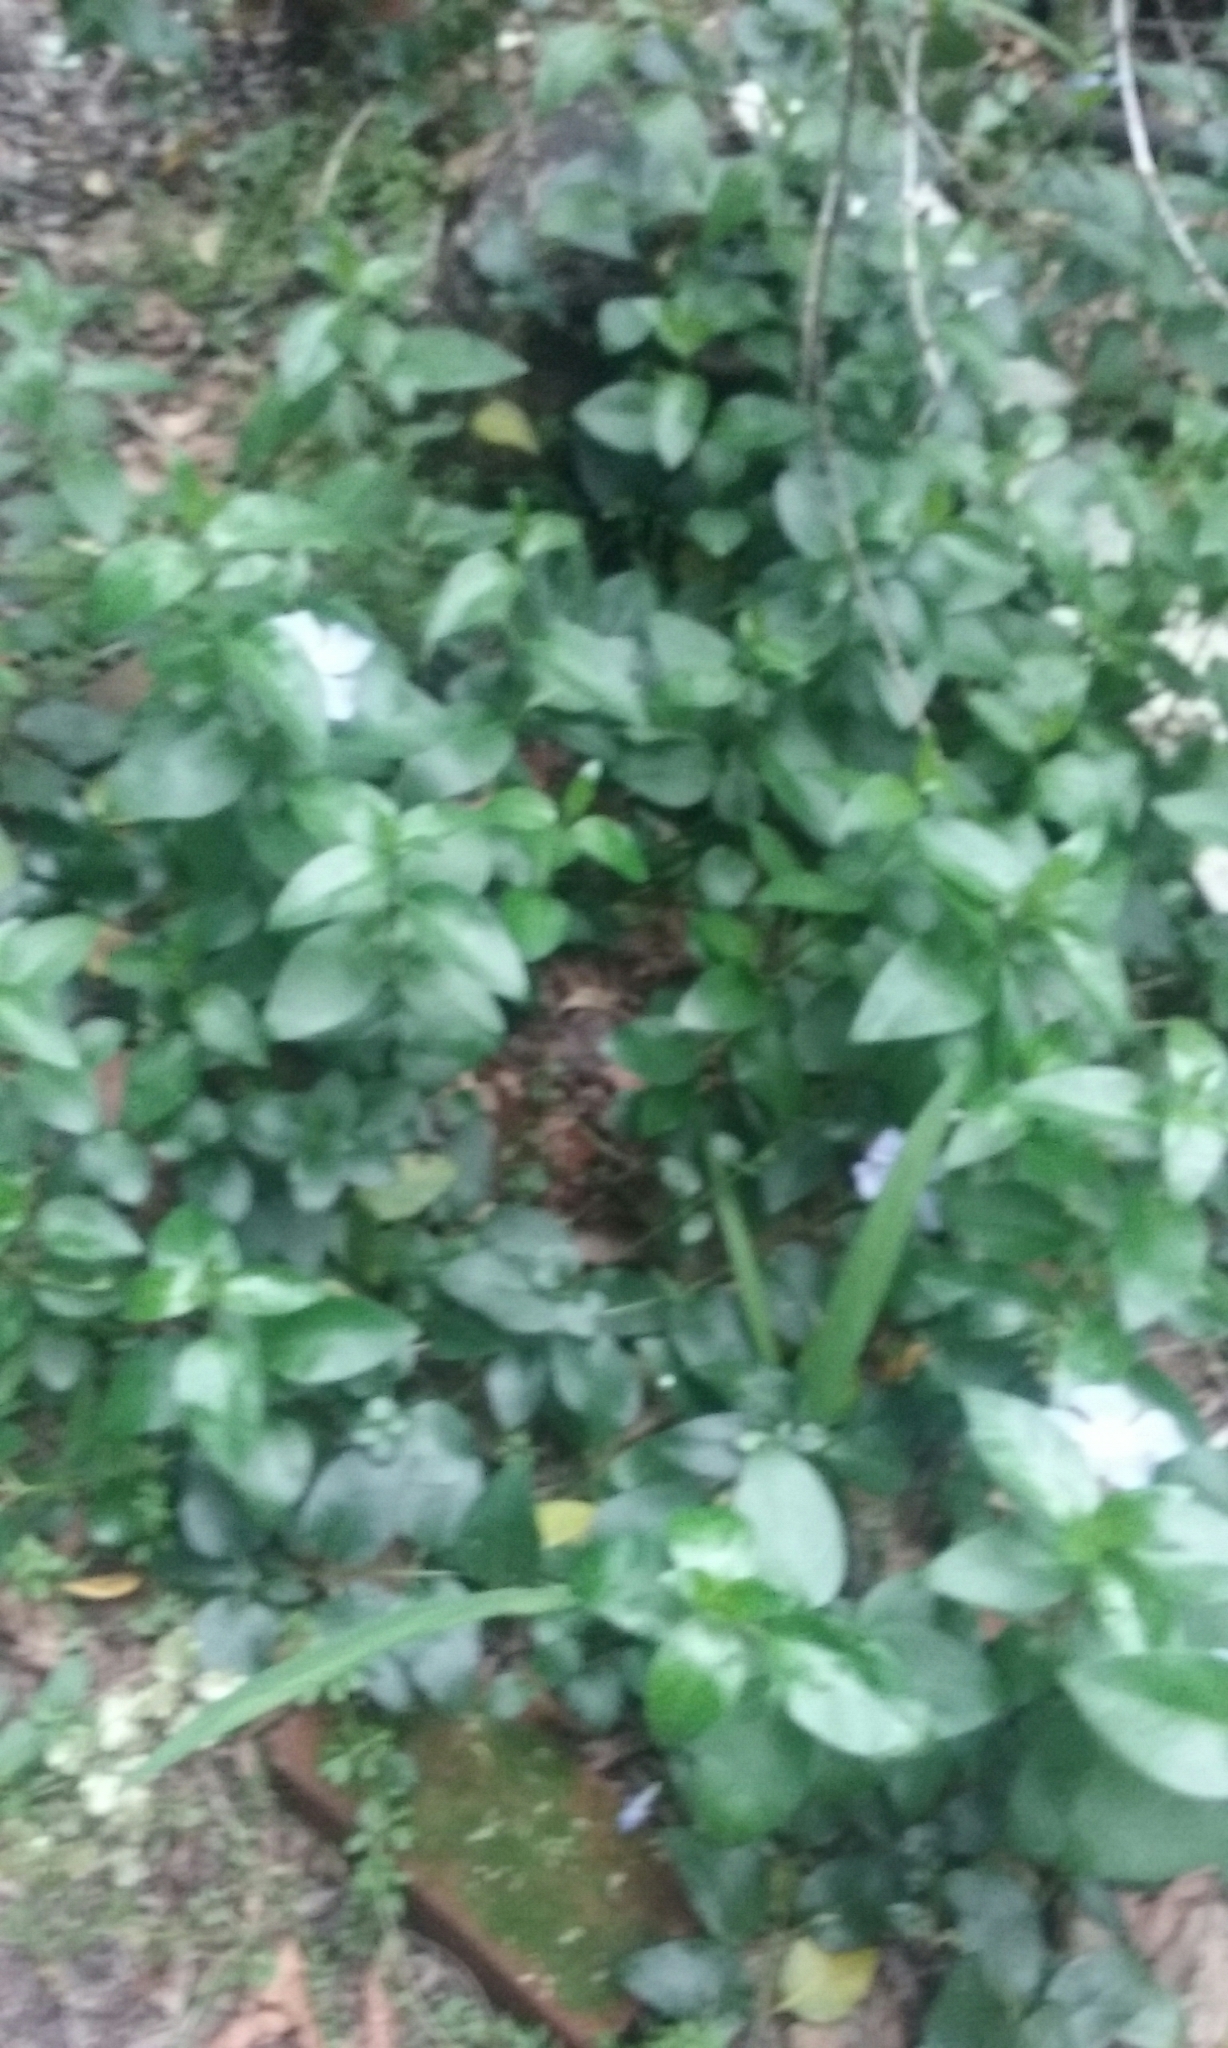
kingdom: Plantae
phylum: Tracheophyta
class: Magnoliopsida
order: Gentianales
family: Apocynaceae
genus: Vinca
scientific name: Vinca major
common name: Greater periwinkle
